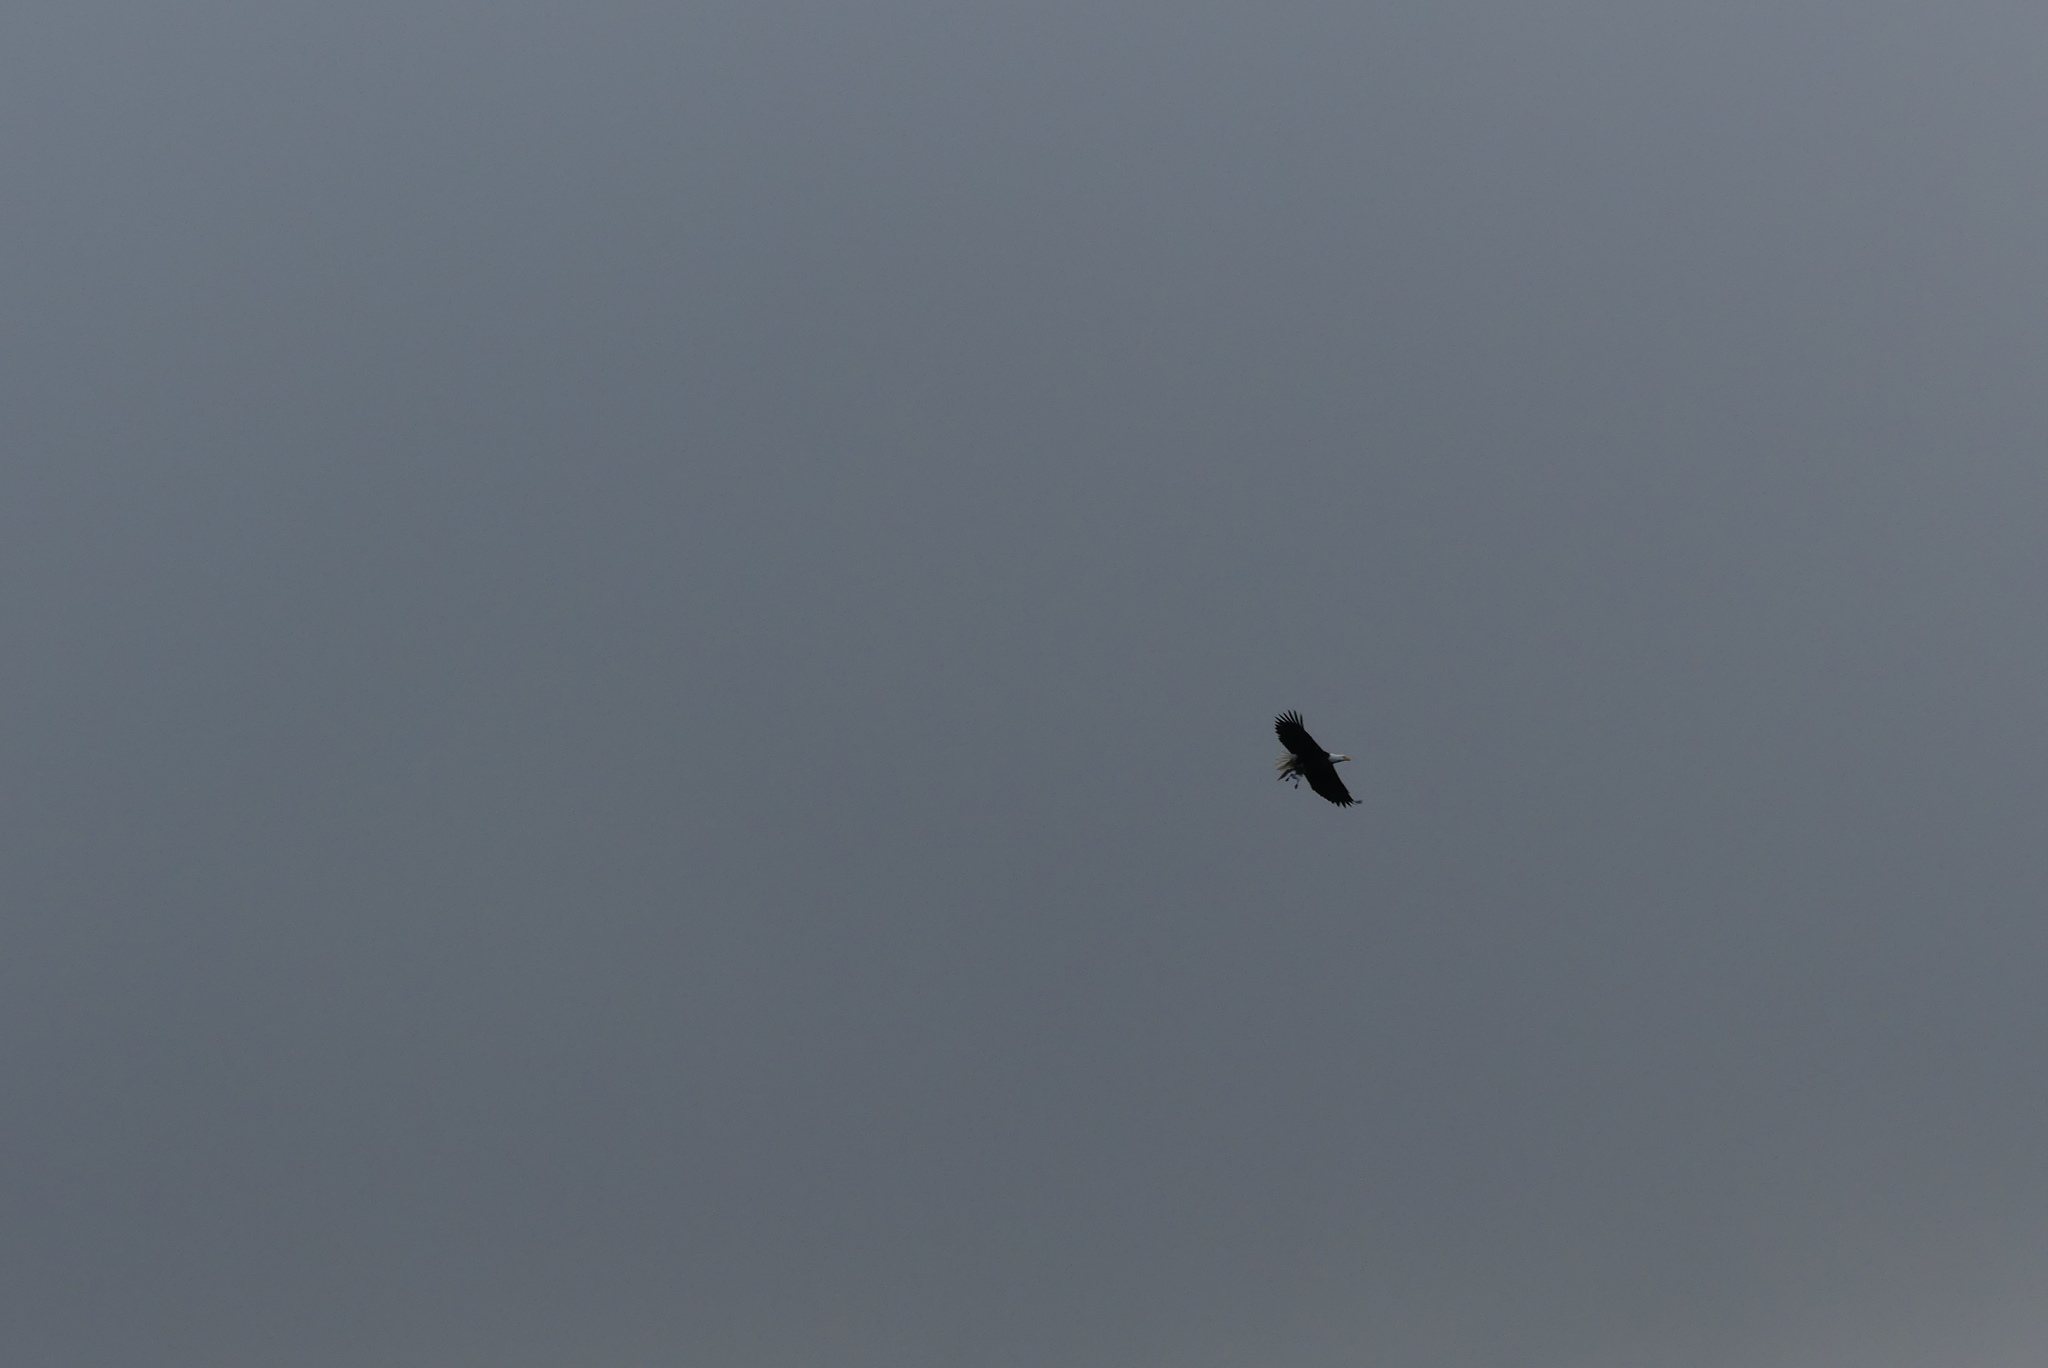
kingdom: Animalia
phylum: Chordata
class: Aves
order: Accipitriformes
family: Accipitridae
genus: Haliaeetus
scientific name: Haliaeetus leucocephalus
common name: Bald eagle
